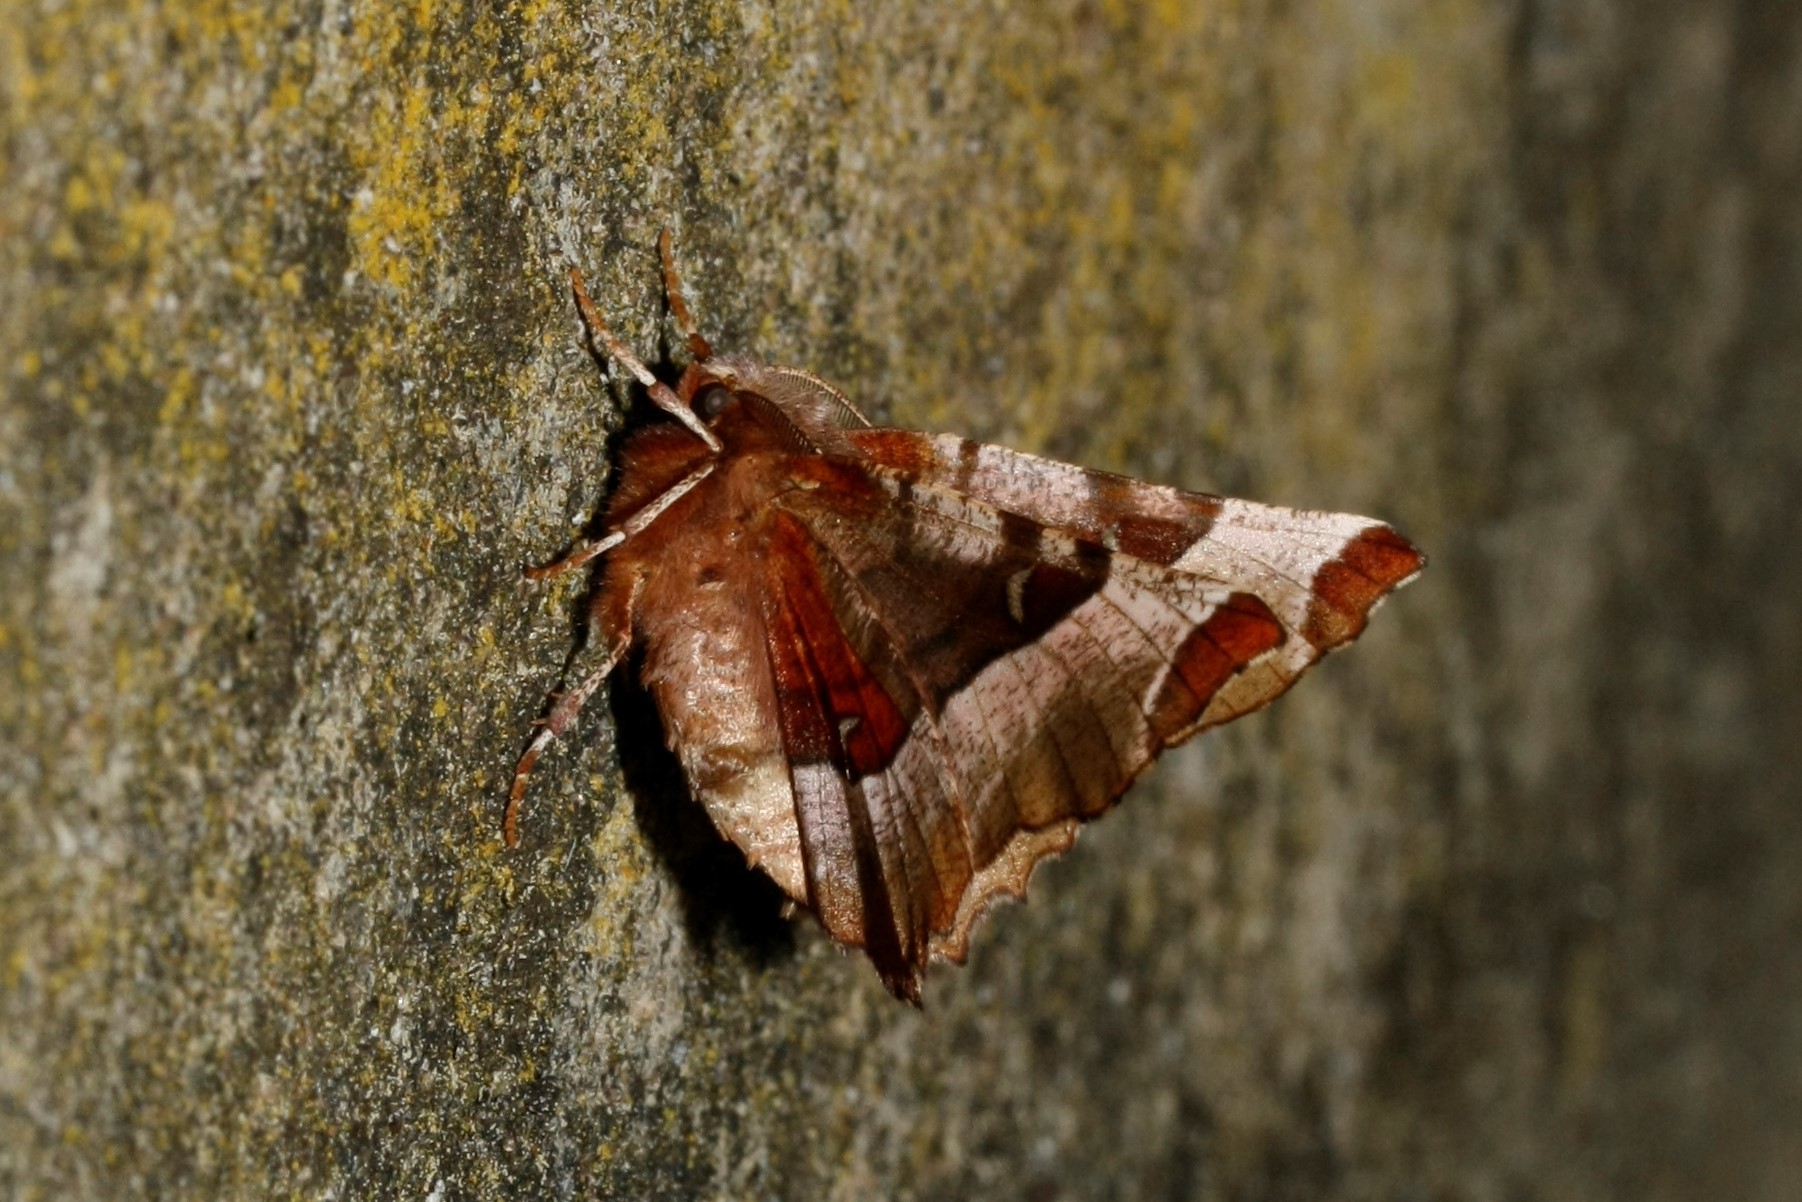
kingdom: Animalia
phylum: Arthropoda
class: Insecta
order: Lepidoptera
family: Geometridae
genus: Selenia
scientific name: Selenia tetralunaria
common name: Purple thorn
